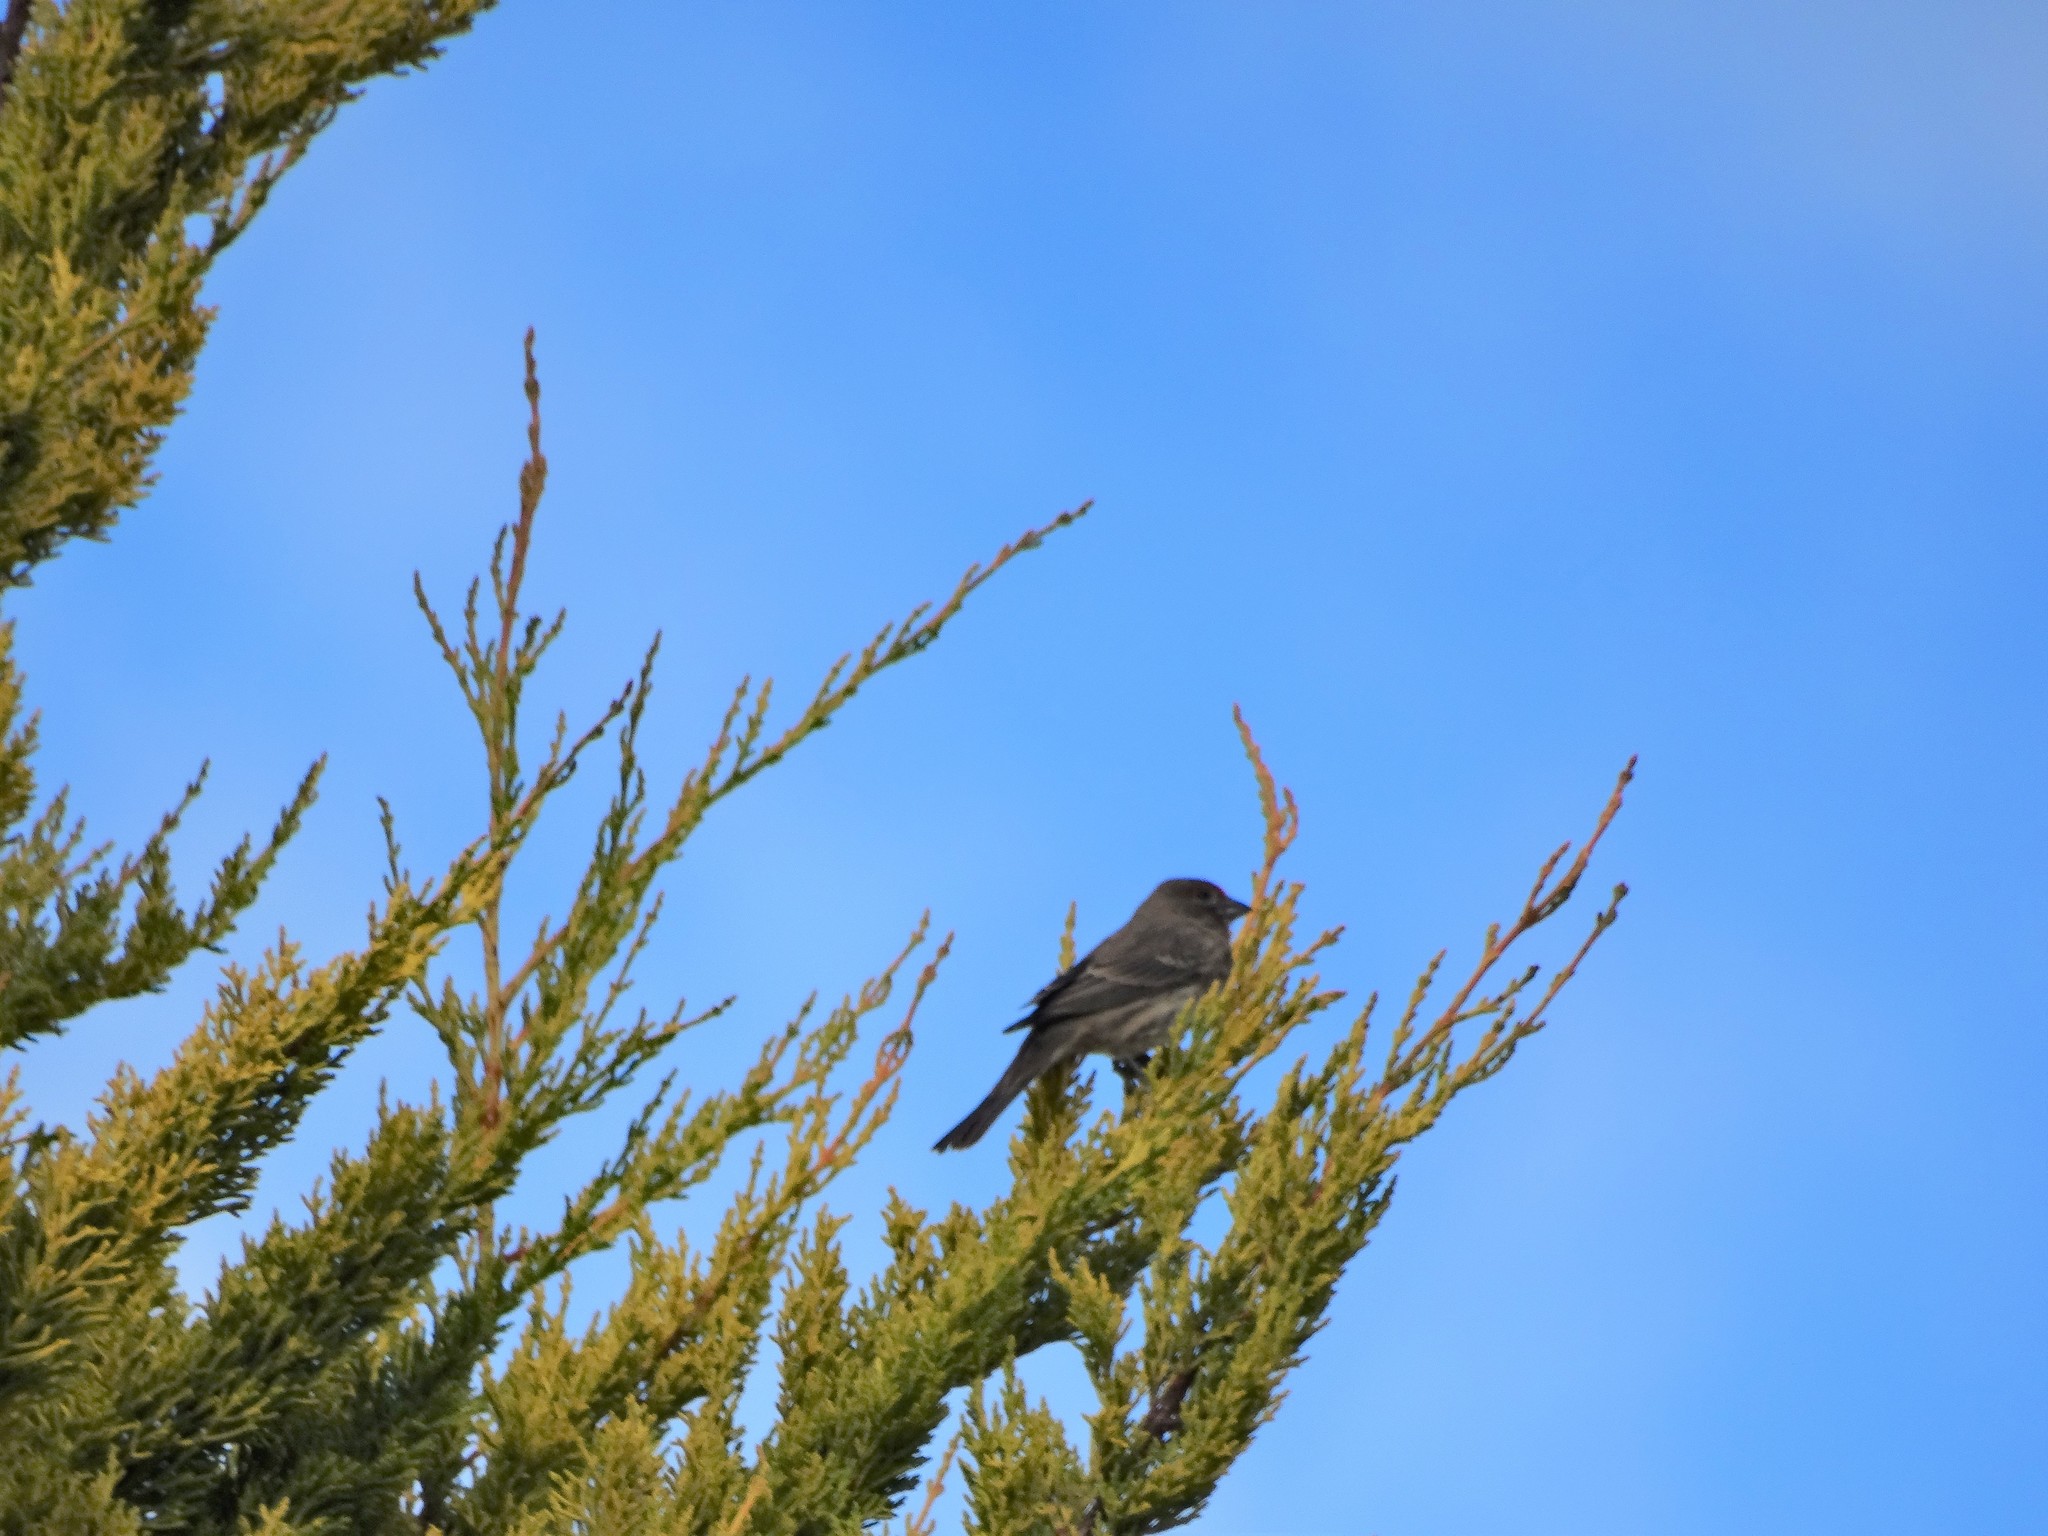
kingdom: Animalia
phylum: Chordata
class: Aves
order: Passeriformes
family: Fringillidae
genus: Haemorhous
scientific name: Haemorhous mexicanus
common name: House finch
